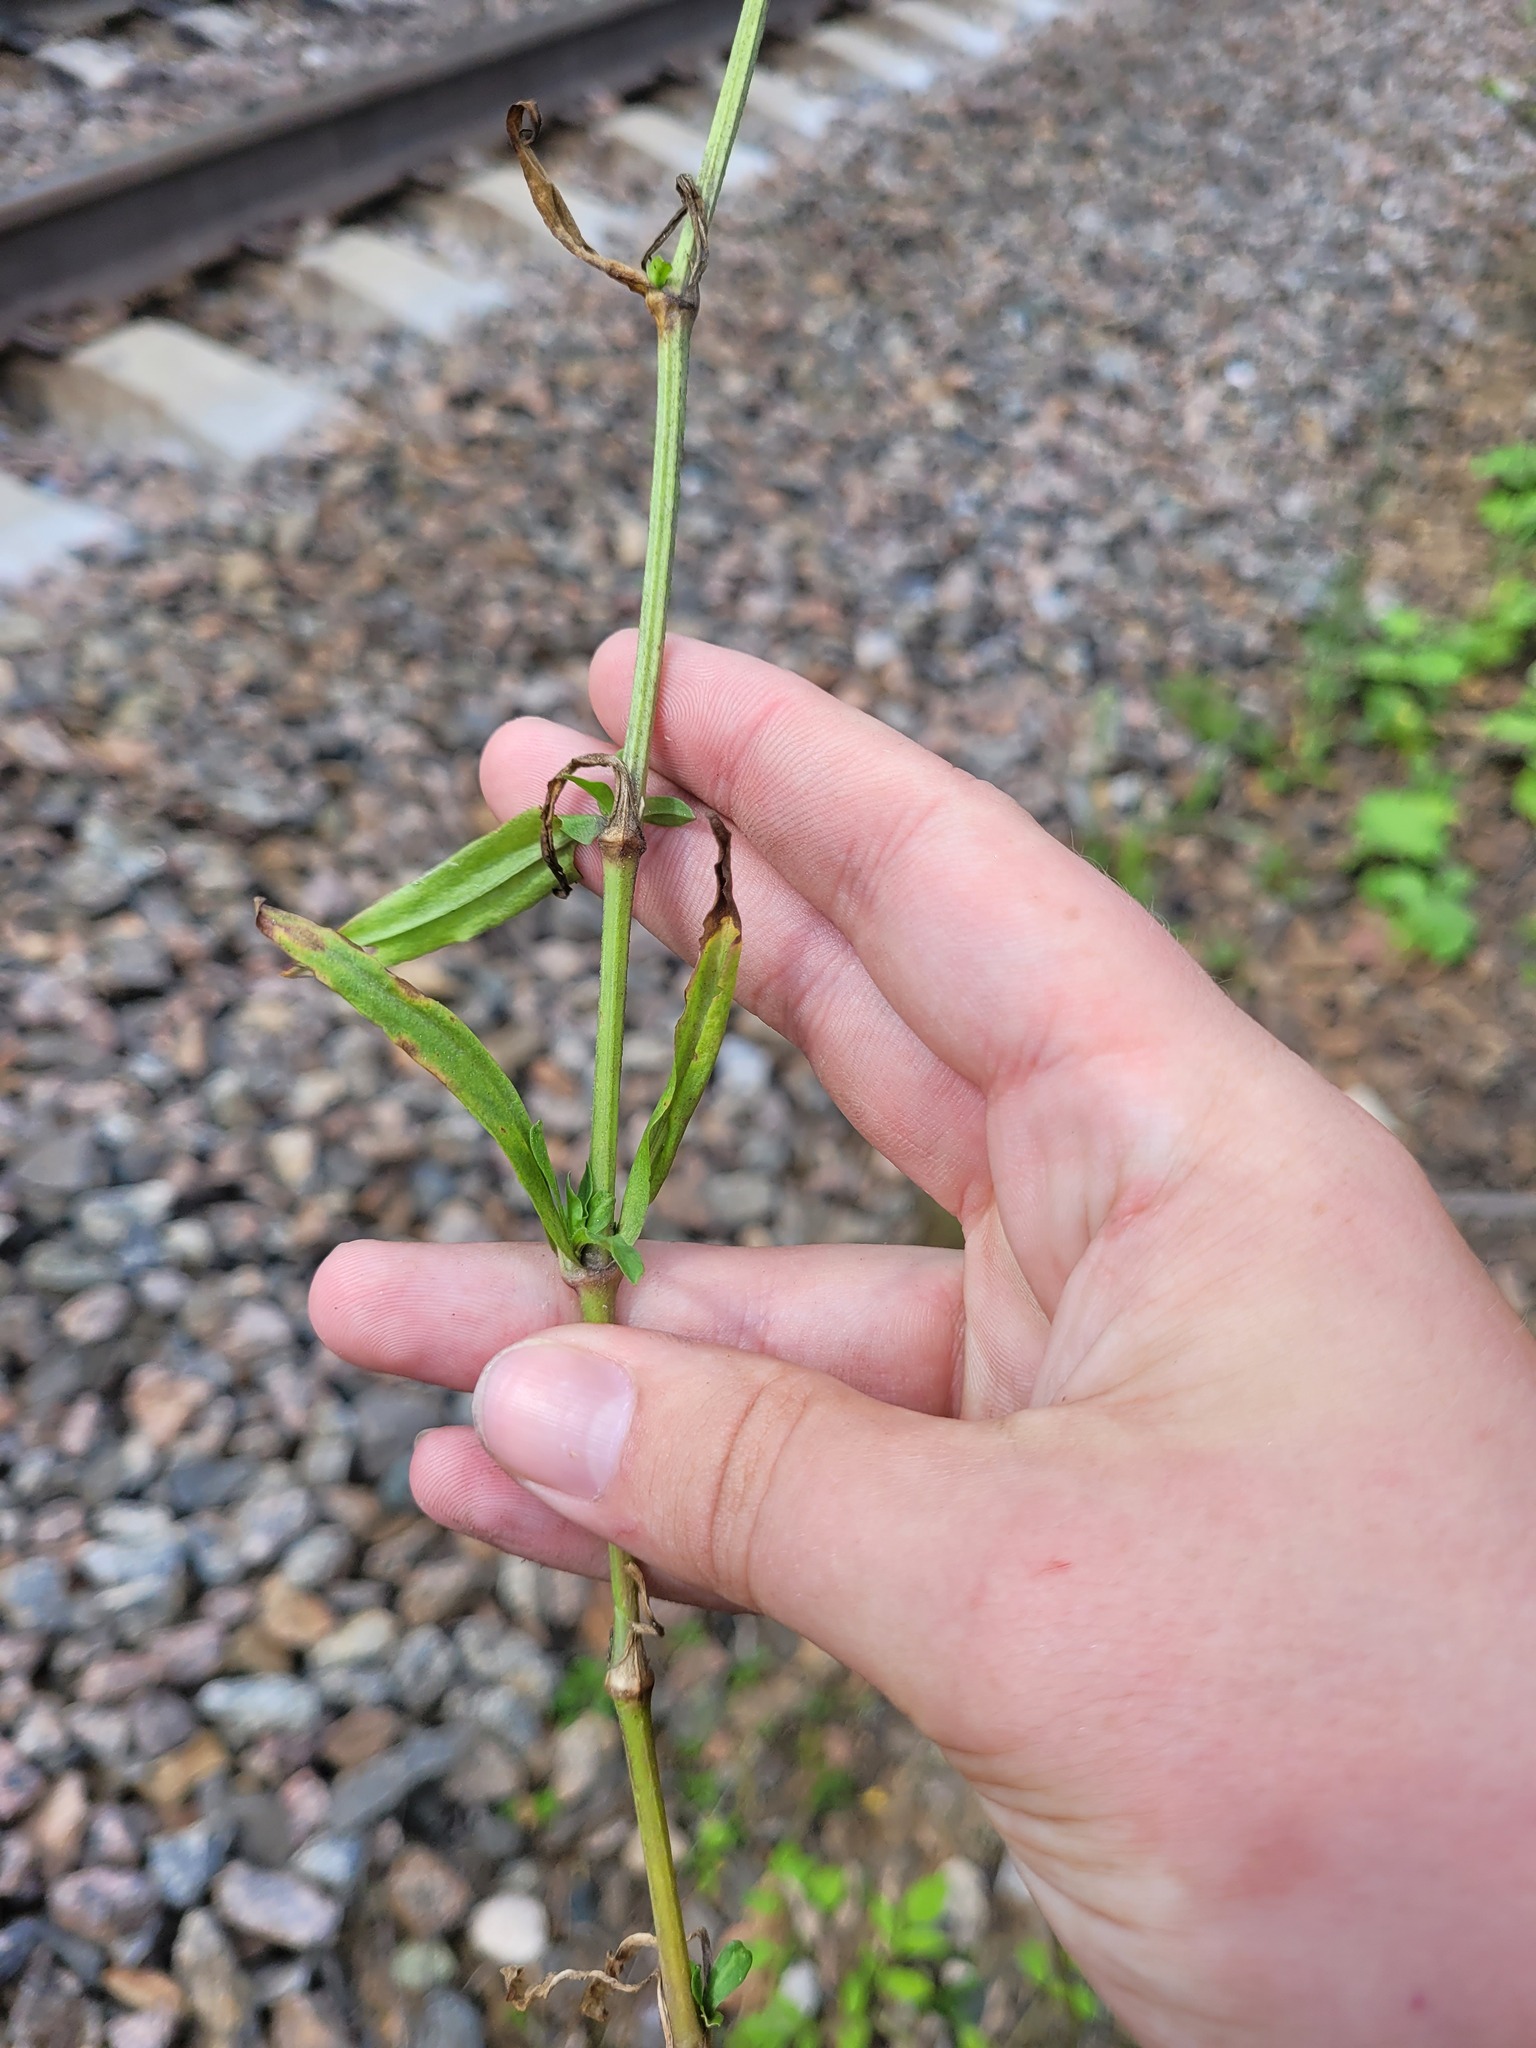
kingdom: Plantae
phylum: Tracheophyta
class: Magnoliopsida
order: Caryophyllales
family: Caryophyllaceae
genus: Silene
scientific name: Silene flos-cuculi
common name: Ragged-robin
